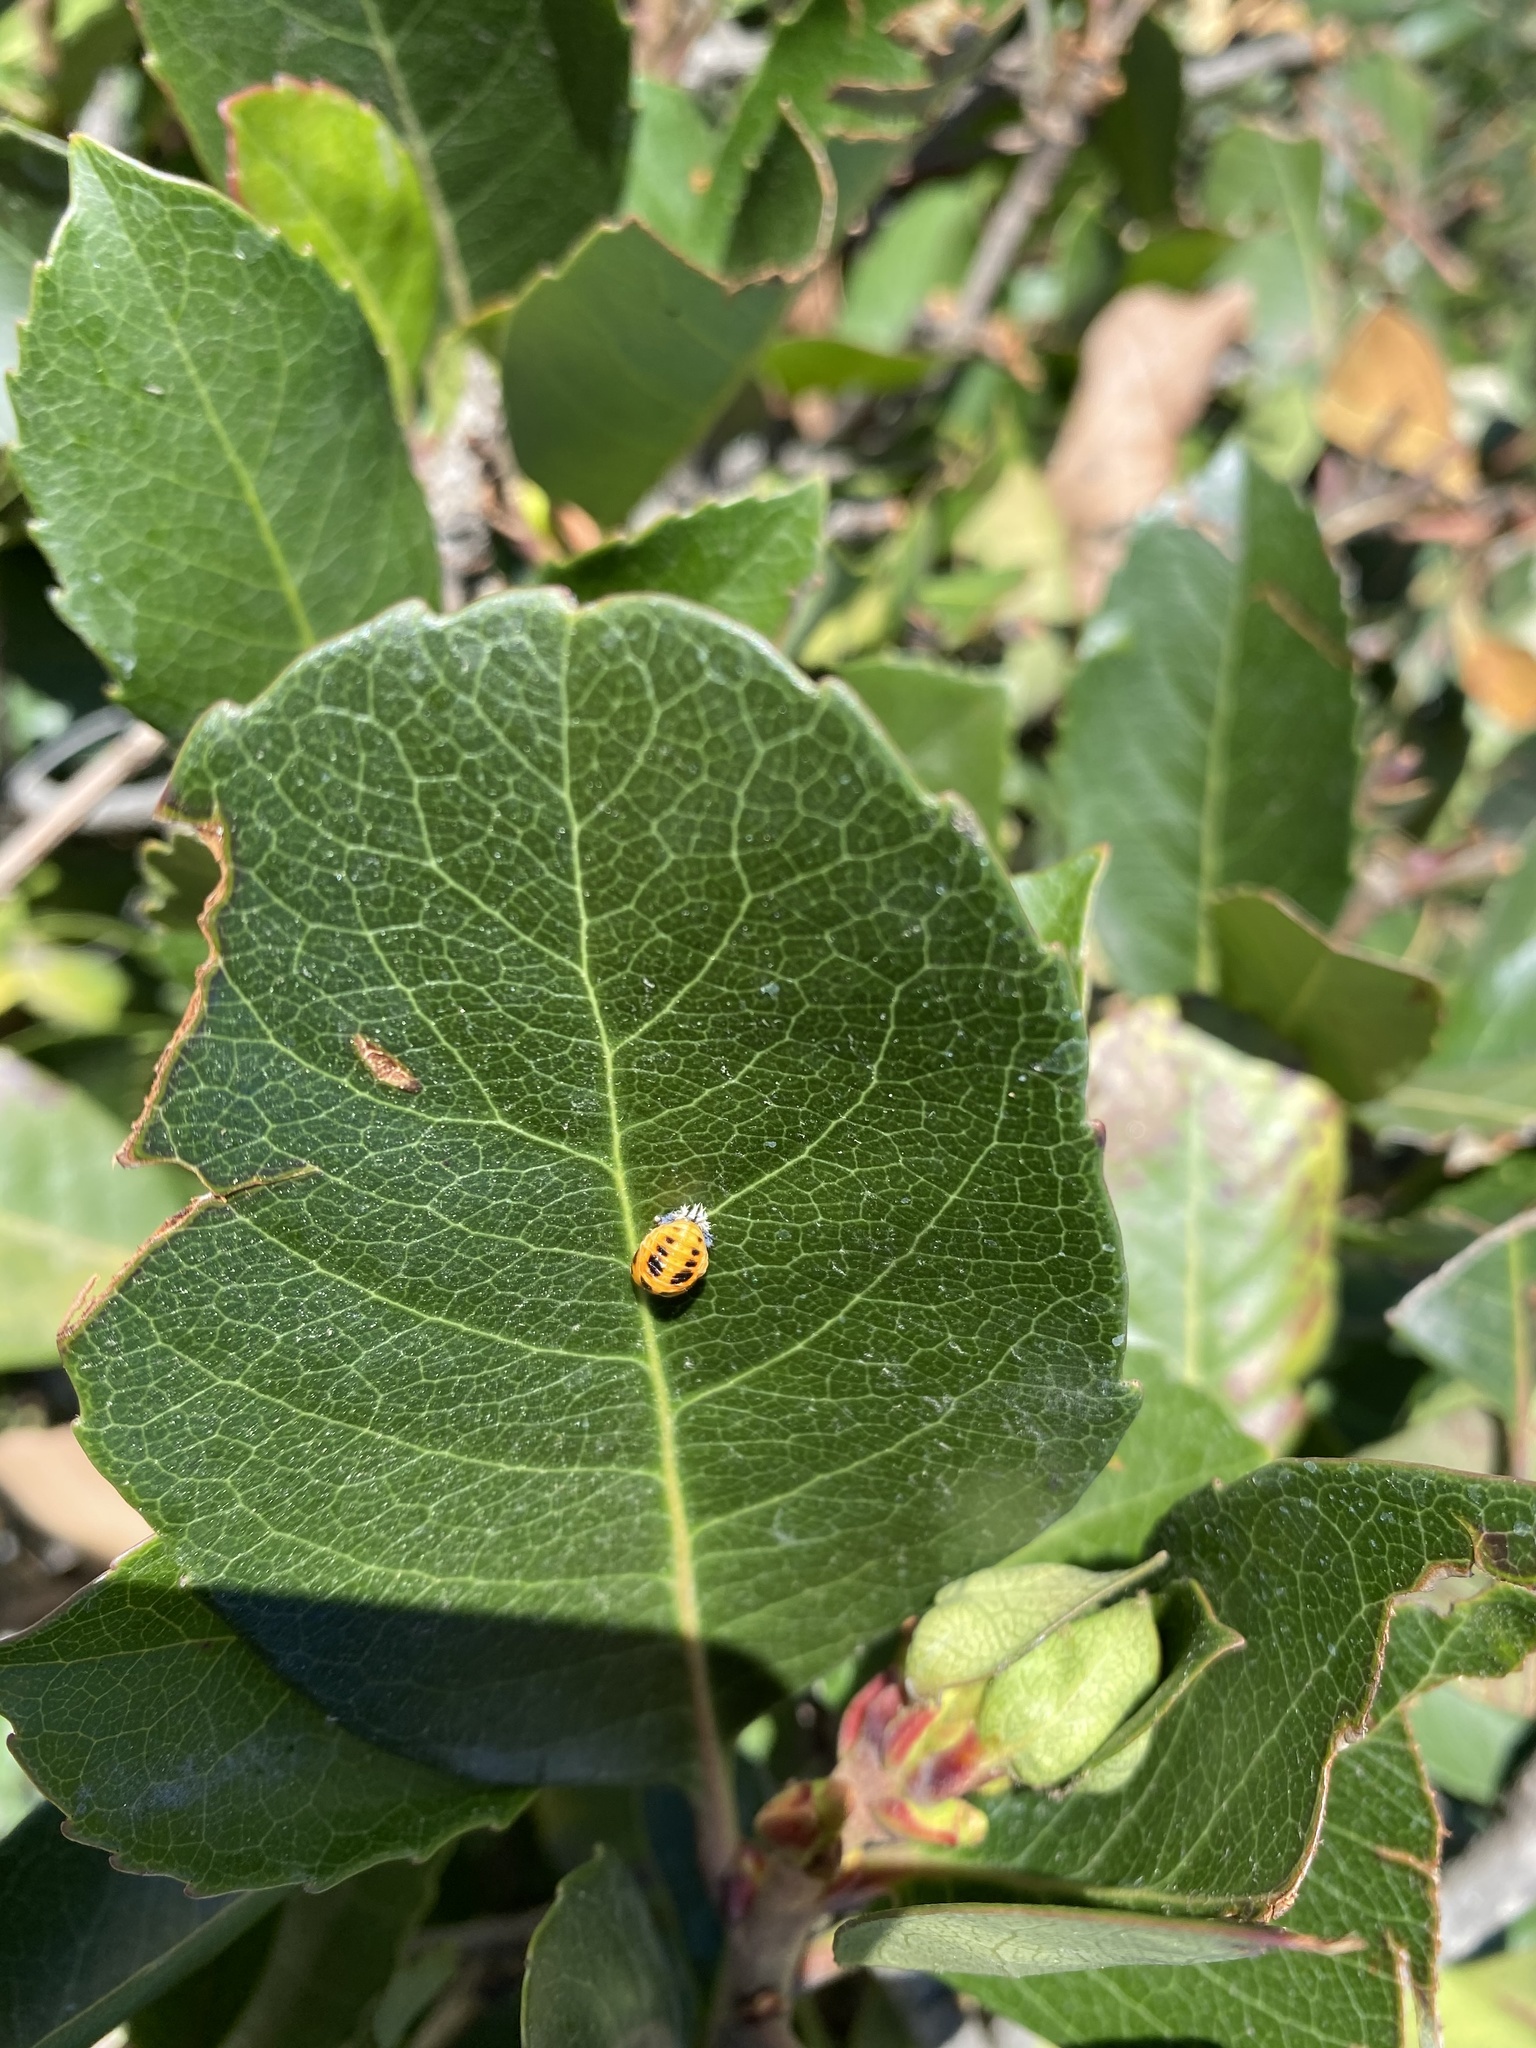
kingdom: Animalia
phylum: Arthropoda
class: Insecta
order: Coleoptera
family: Coccinellidae
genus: Harmonia
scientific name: Harmonia axyridis
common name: Harlequin ladybird
